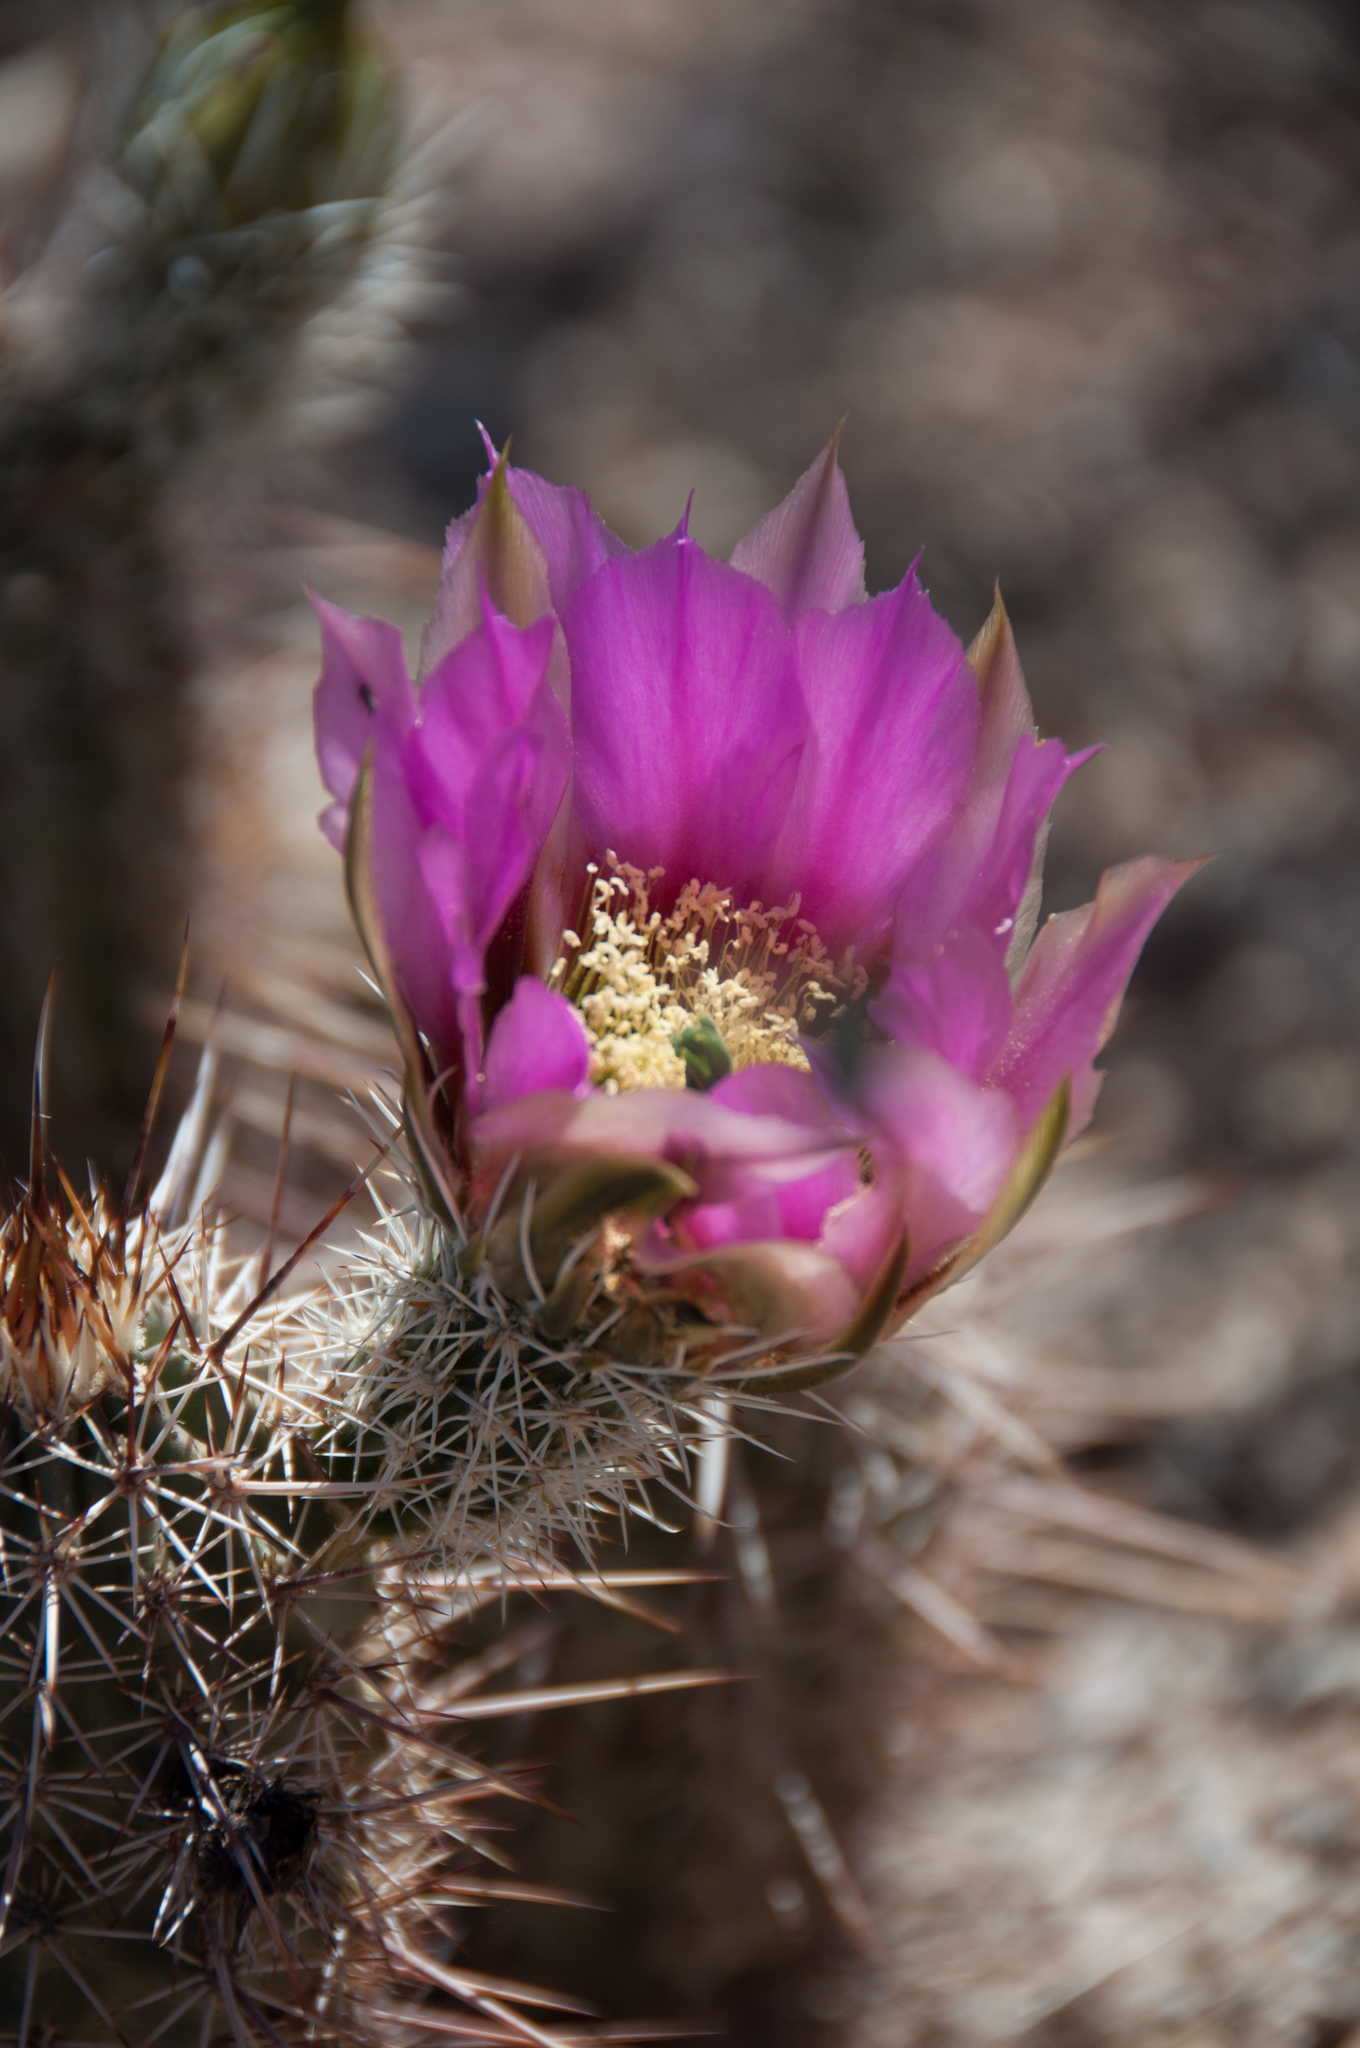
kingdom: Plantae
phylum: Tracheophyta
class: Magnoliopsida
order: Caryophyllales
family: Cactaceae
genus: Echinocereus
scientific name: Echinocereus fasciculatus
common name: Bundle hedgehog
